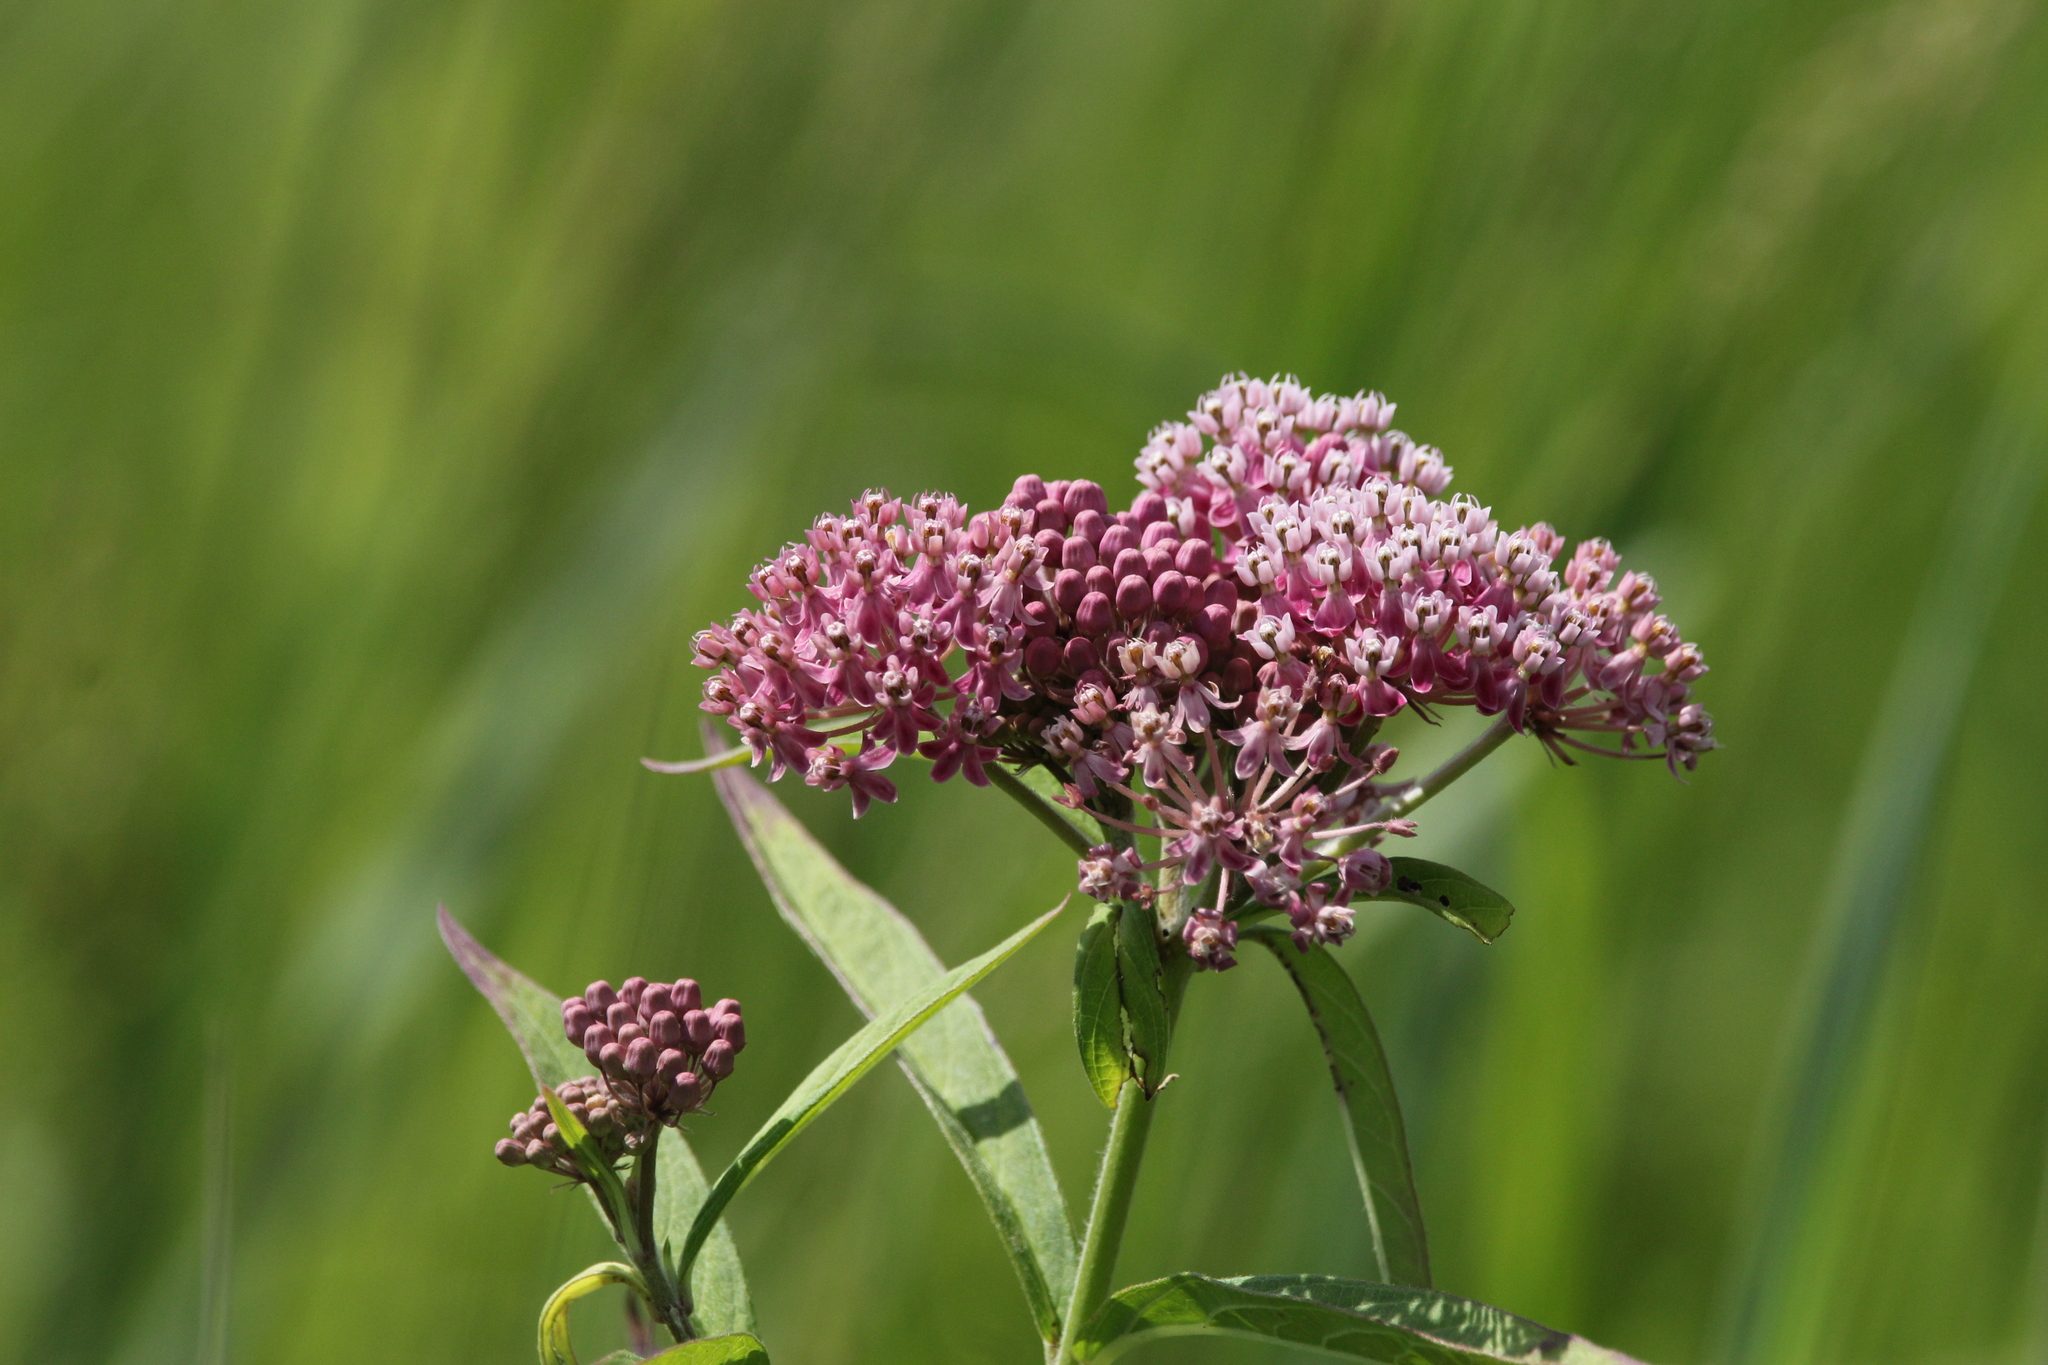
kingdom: Plantae
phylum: Tracheophyta
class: Magnoliopsida
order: Gentianales
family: Apocynaceae
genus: Asclepias
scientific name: Asclepias incarnata
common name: Swamp milkweed
